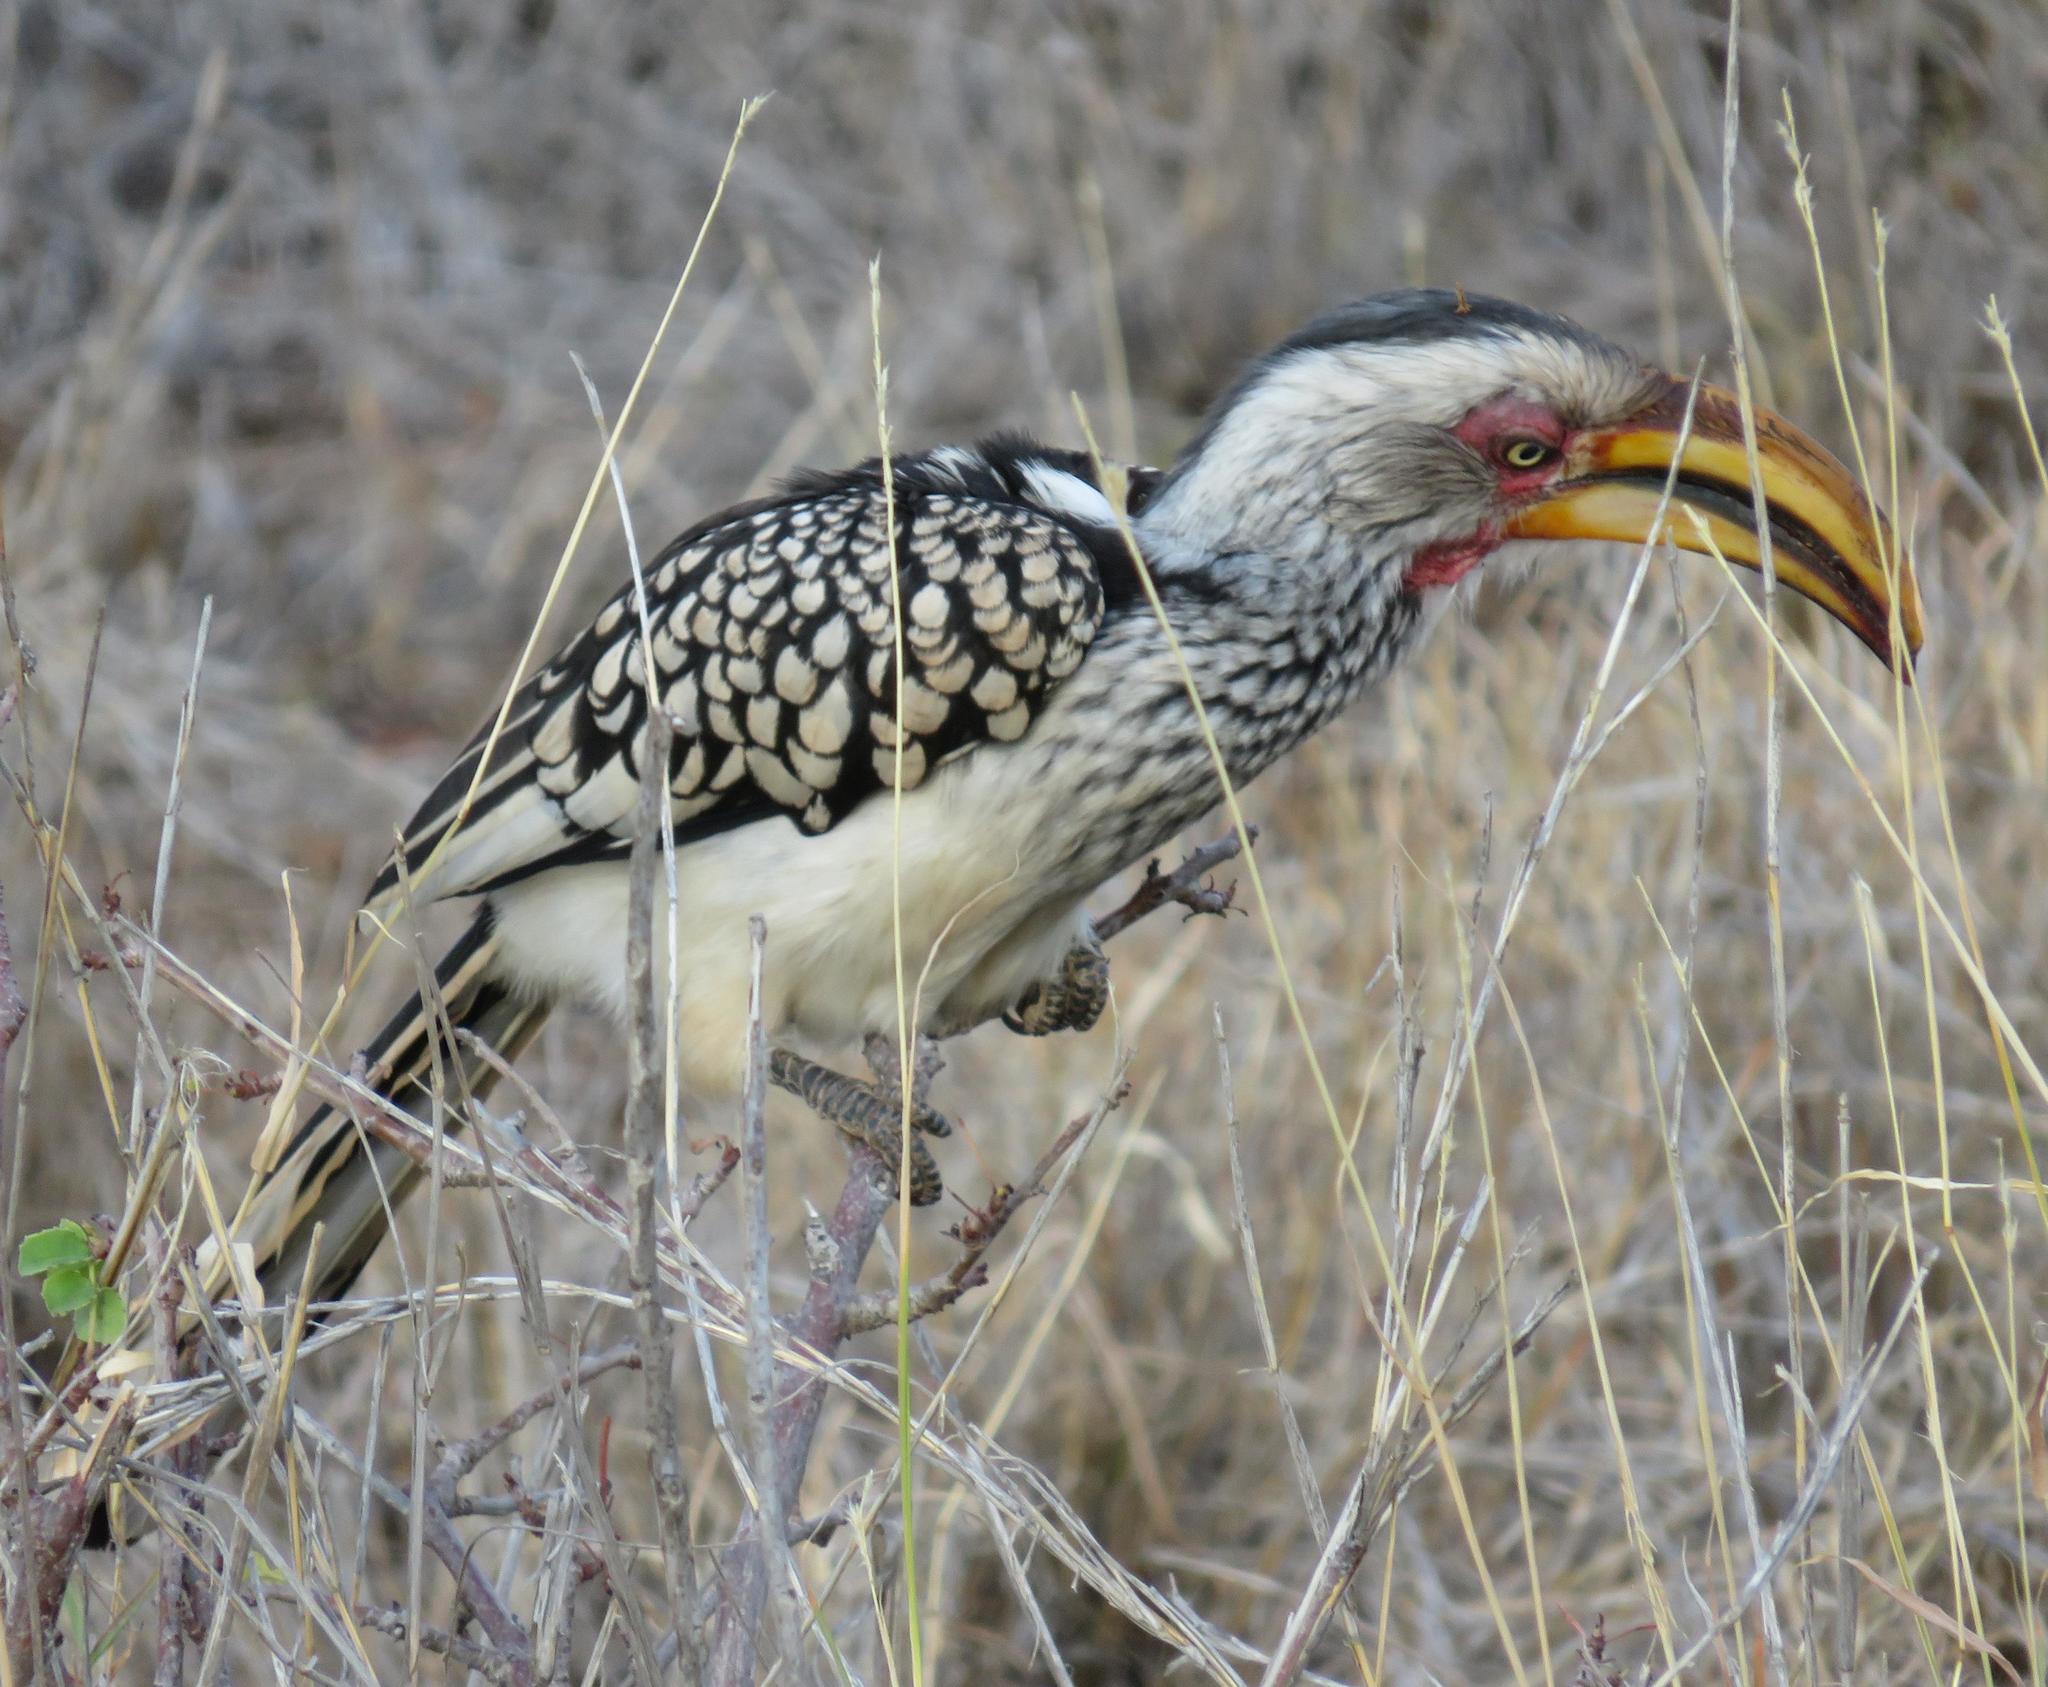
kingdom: Animalia
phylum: Chordata
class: Aves
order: Bucerotiformes
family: Bucerotidae
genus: Tockus
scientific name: Tockus leucomelas
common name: Southern yellow-billed hornbill
